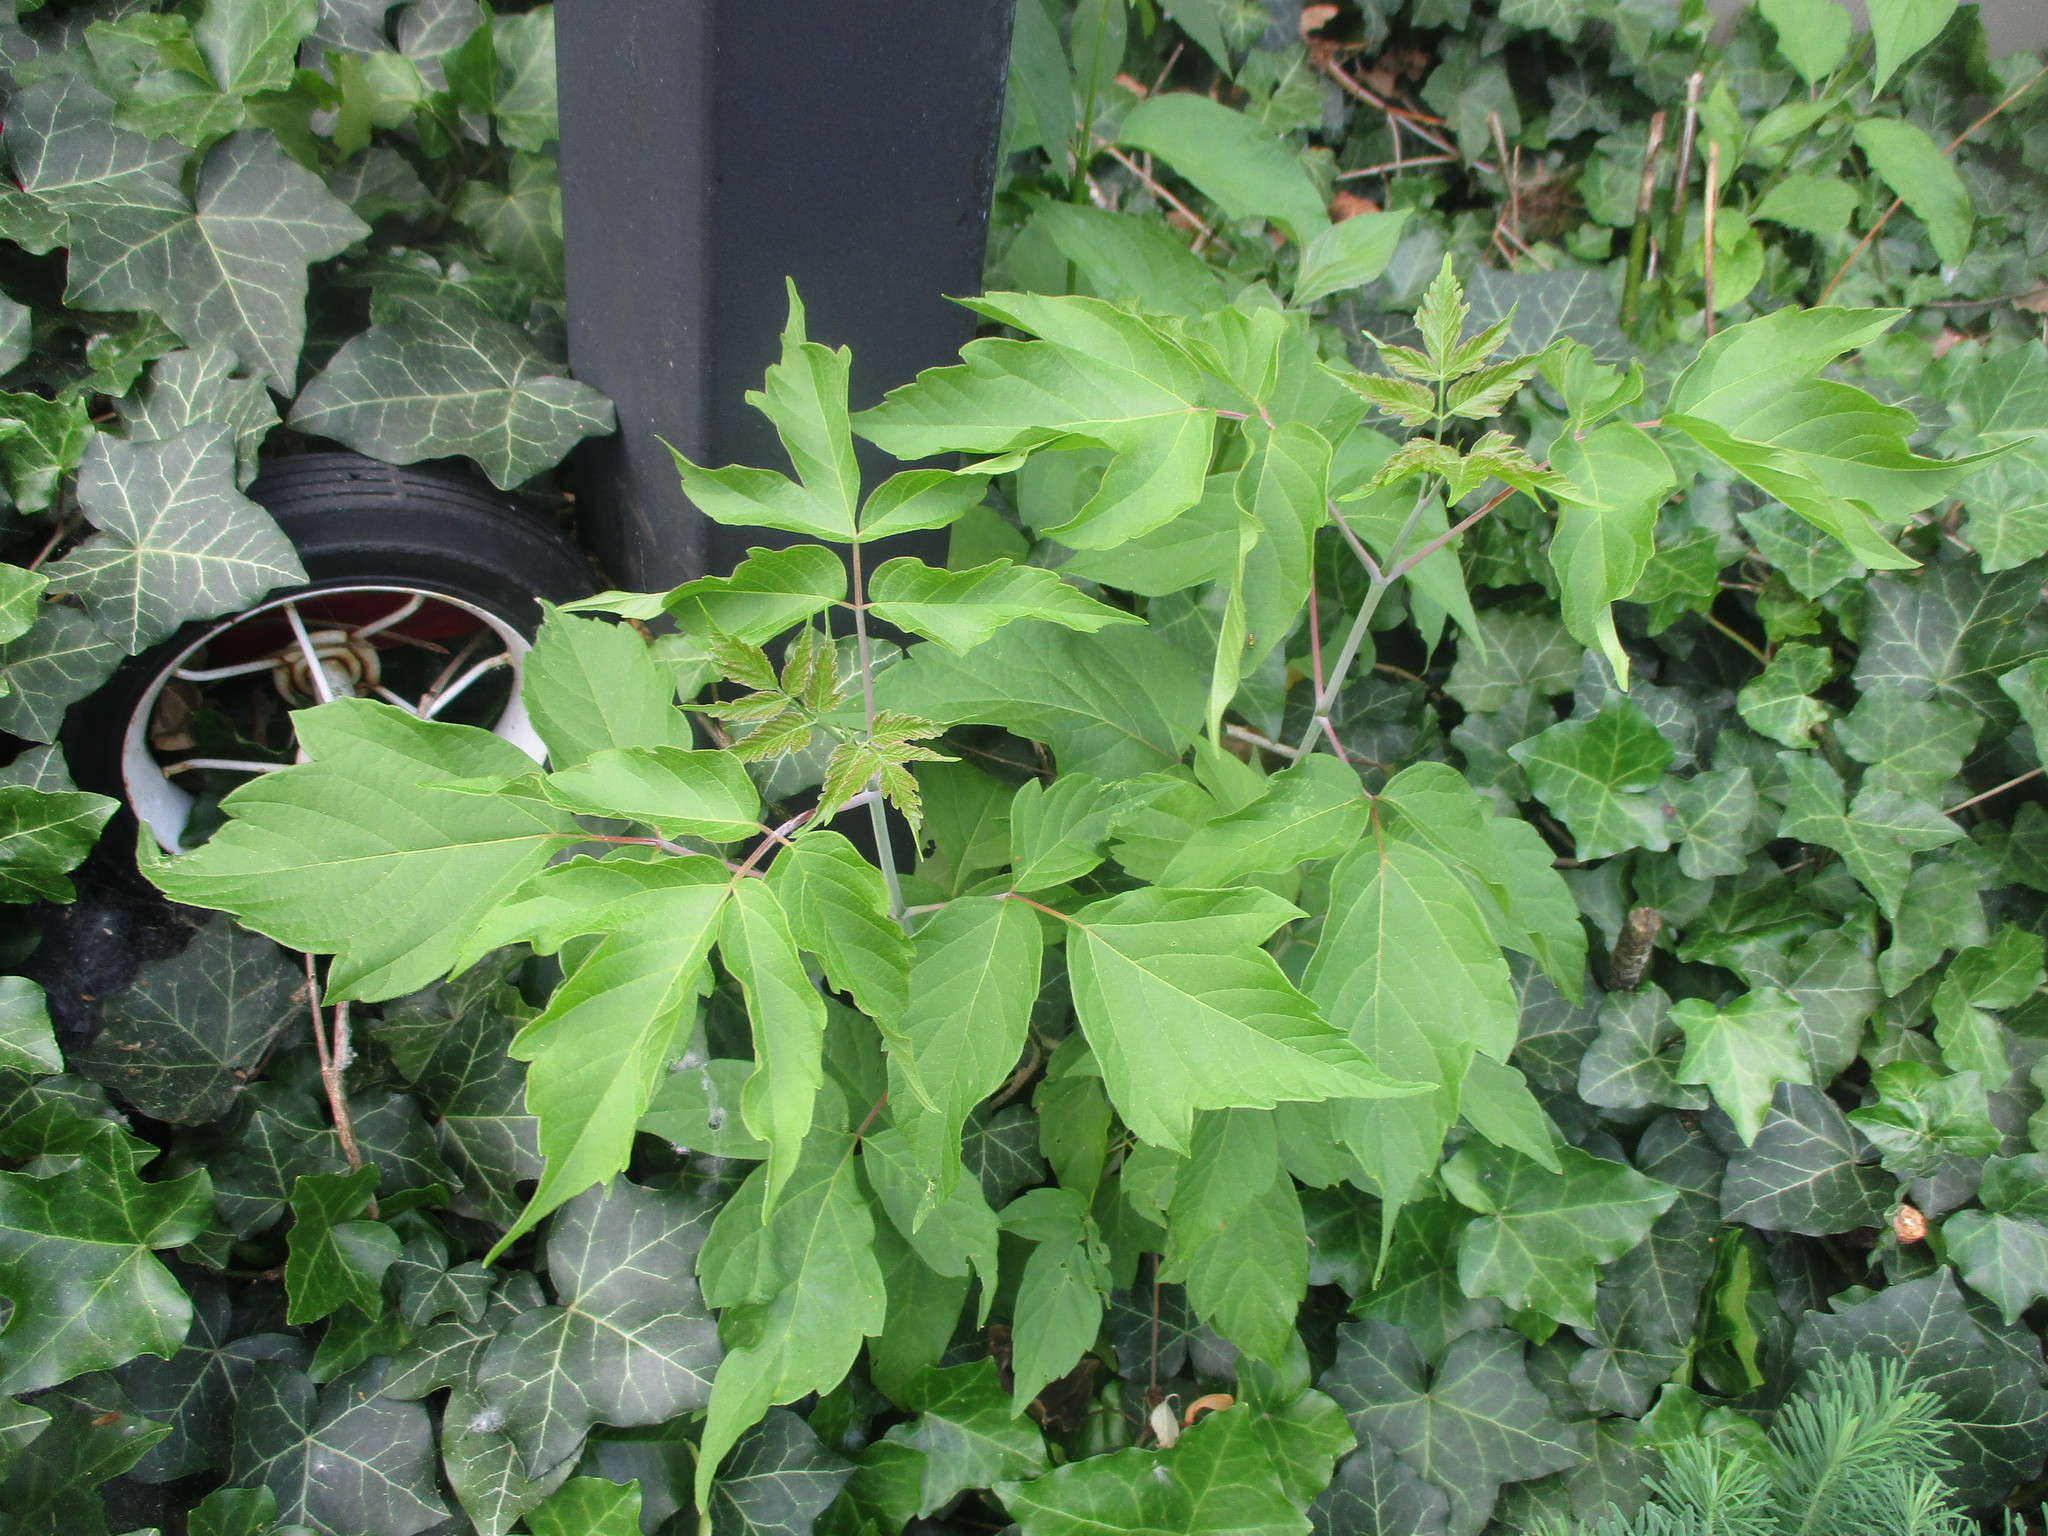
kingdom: Plantae
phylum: Tracheophyta
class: Magnoliopsida
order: Sapindales
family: Sapindaceae
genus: Acer
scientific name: Acer negundo
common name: Ashleaf maple
